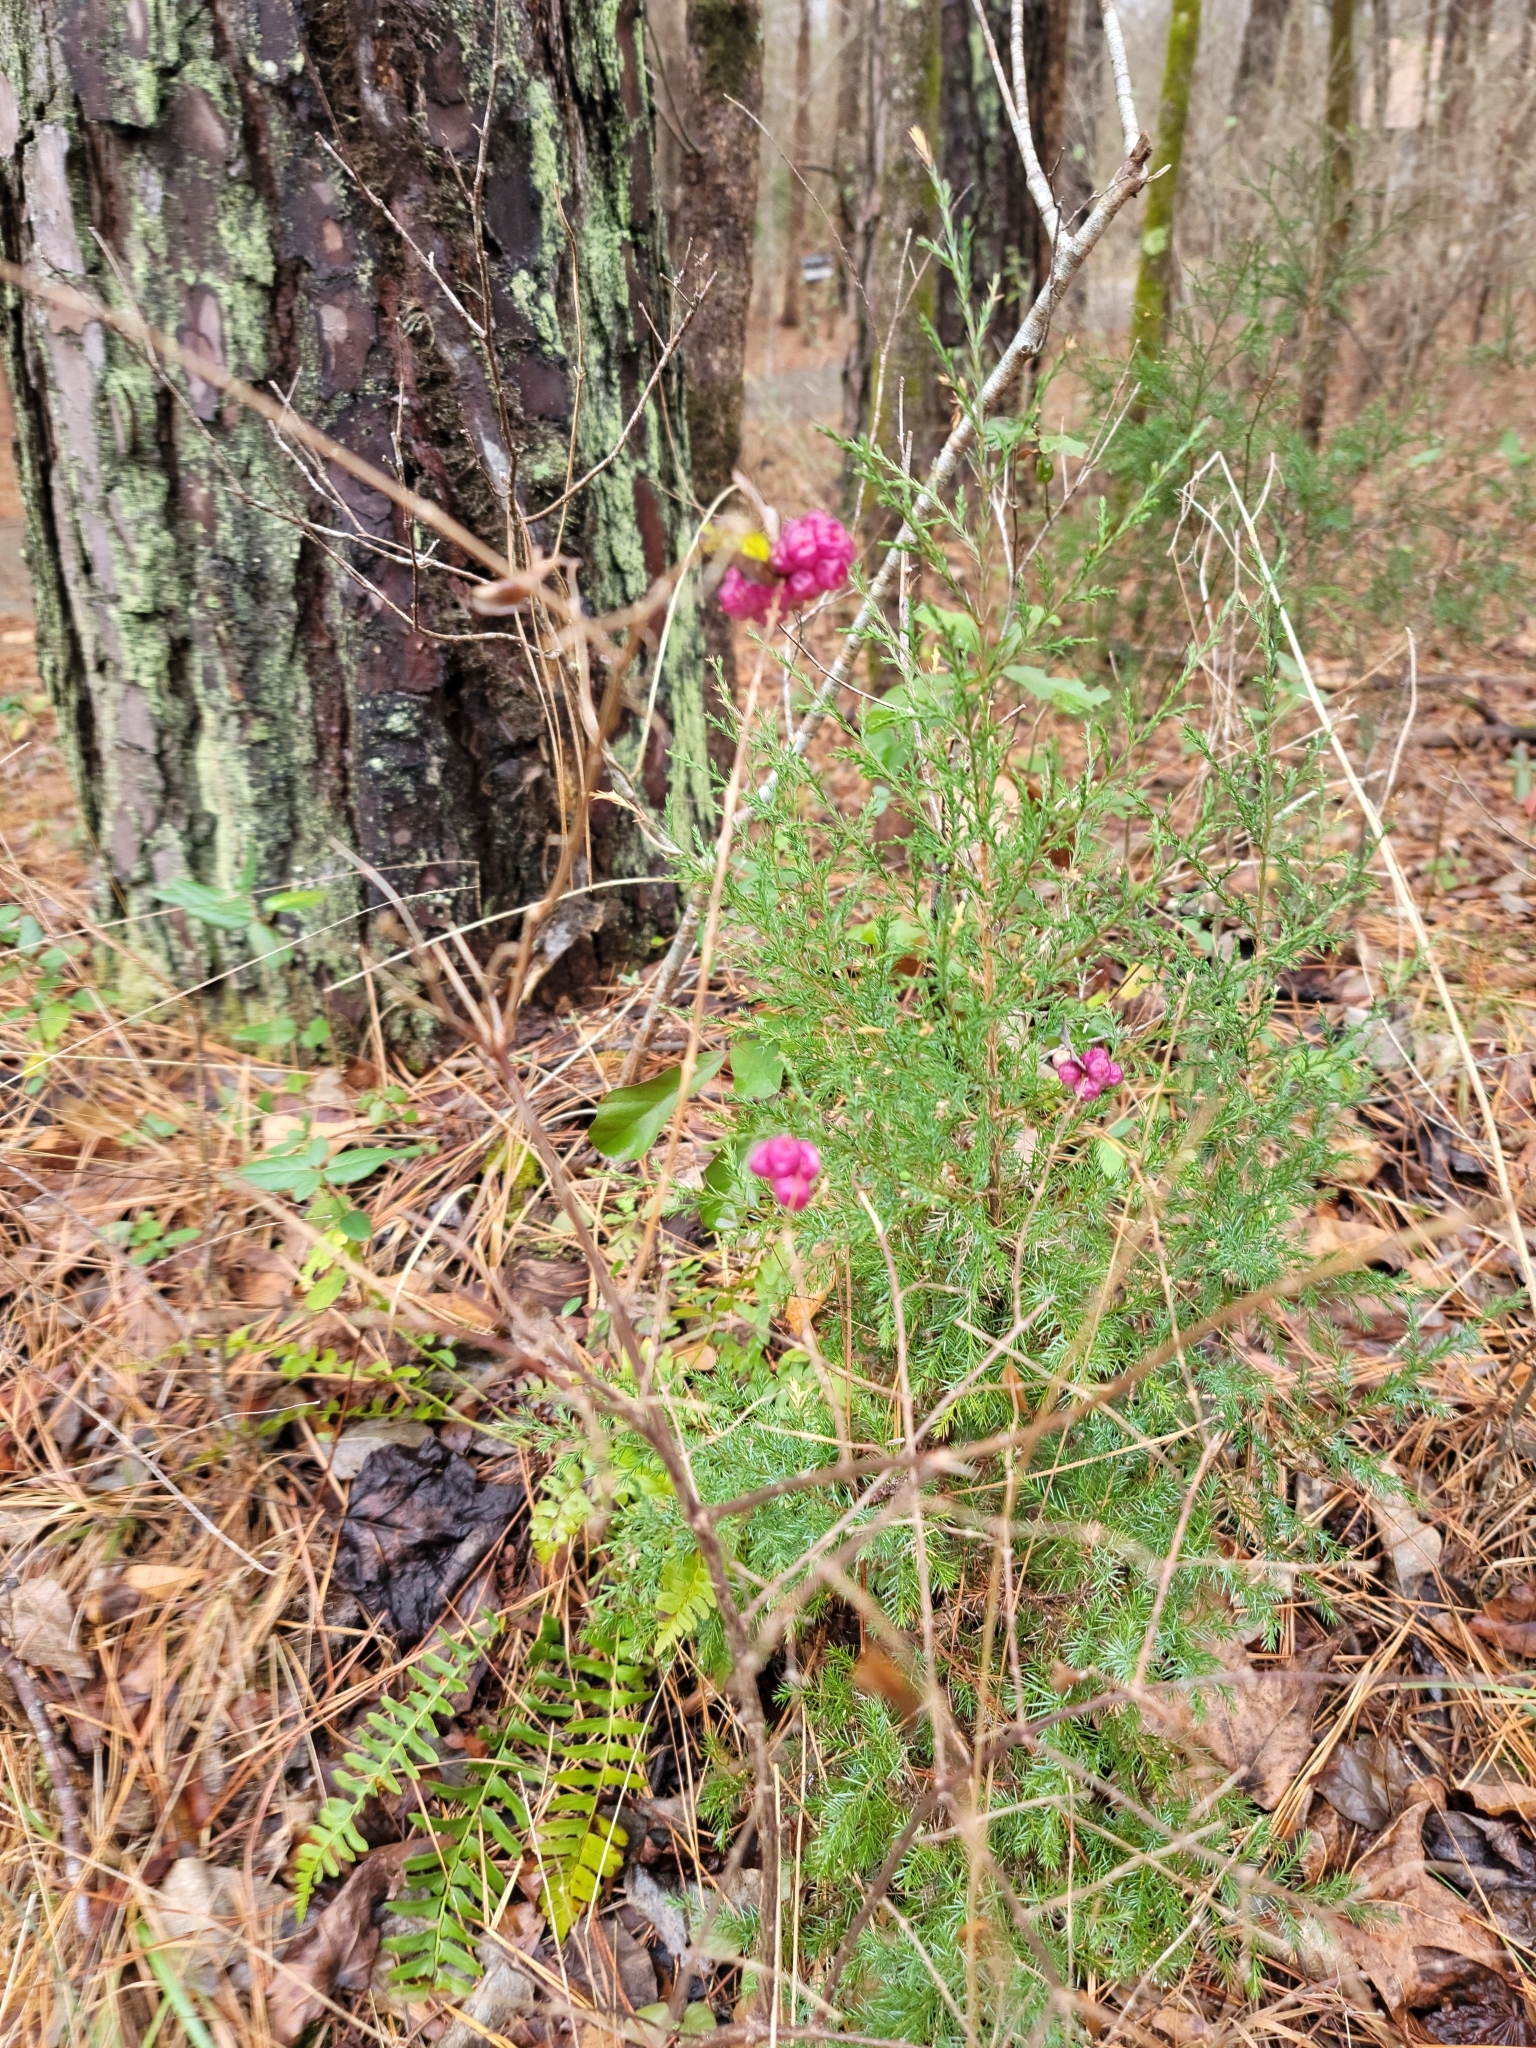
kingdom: Plantae
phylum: Tracheophyta
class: Magnoliopsida
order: Dipsacales
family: Caprifoliaceae
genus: Symphoricarpos
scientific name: Symphoricarpos orbiculatus
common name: Coralberry
